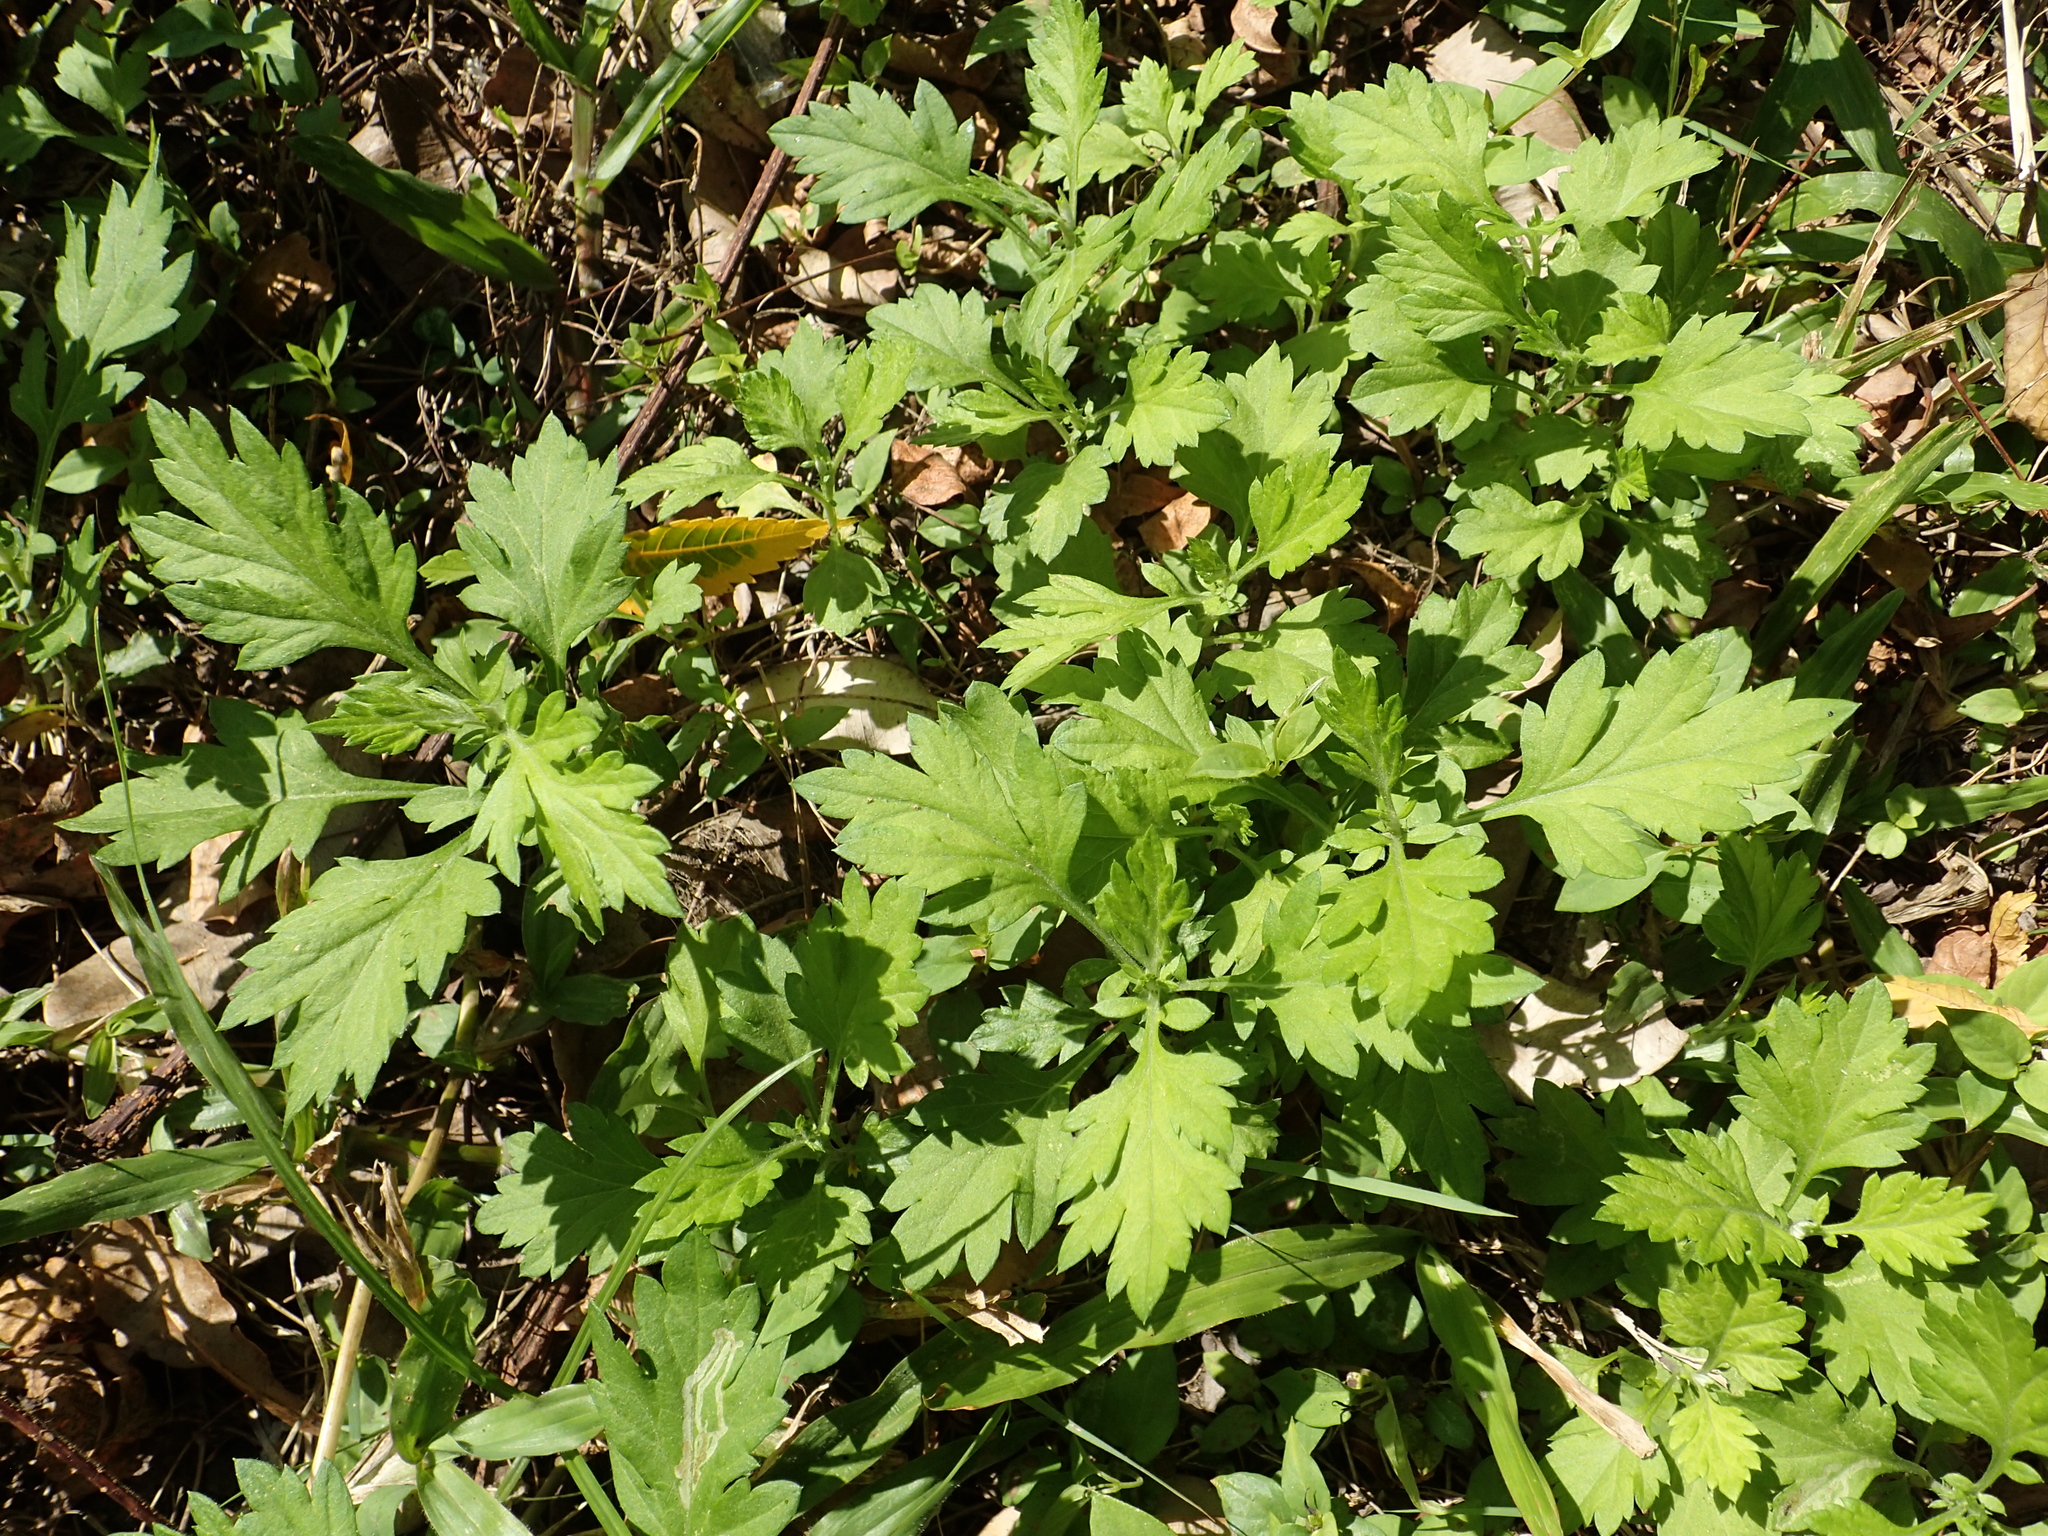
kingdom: Plantae
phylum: Tracheophyta
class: Magnoliopsida
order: Asterales
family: Asteraceae
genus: Artemisia
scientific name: Artemisia indica
